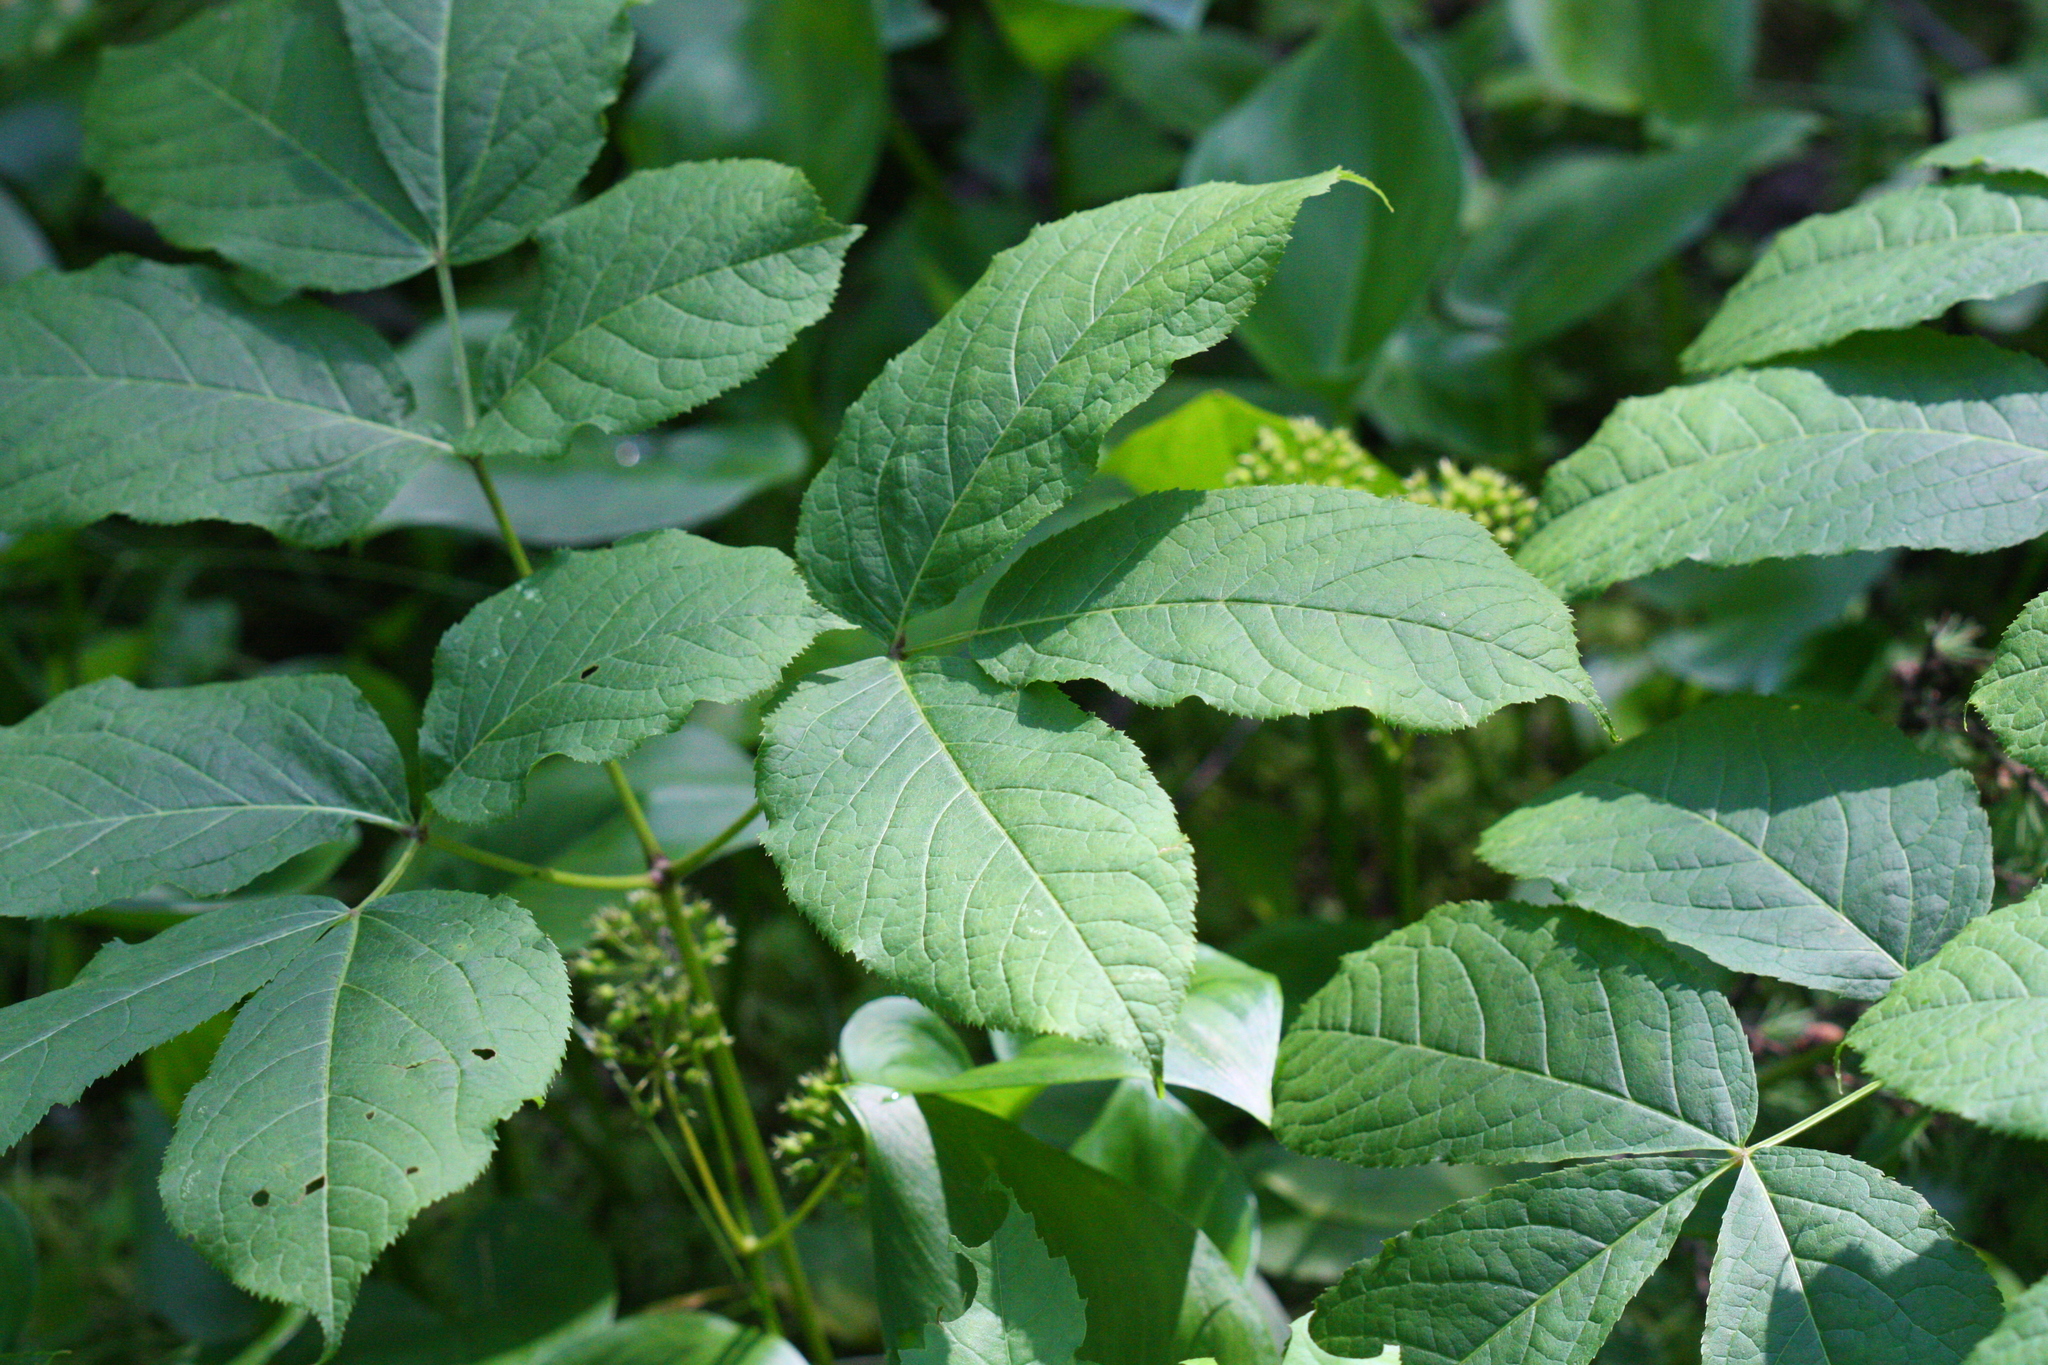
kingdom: Plantae
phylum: Tracheophyta
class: Magnoliopsida
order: Apiales
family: Araliaceae
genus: Aralia
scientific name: Aralia nudicaulis
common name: Wild sarsaparilla
